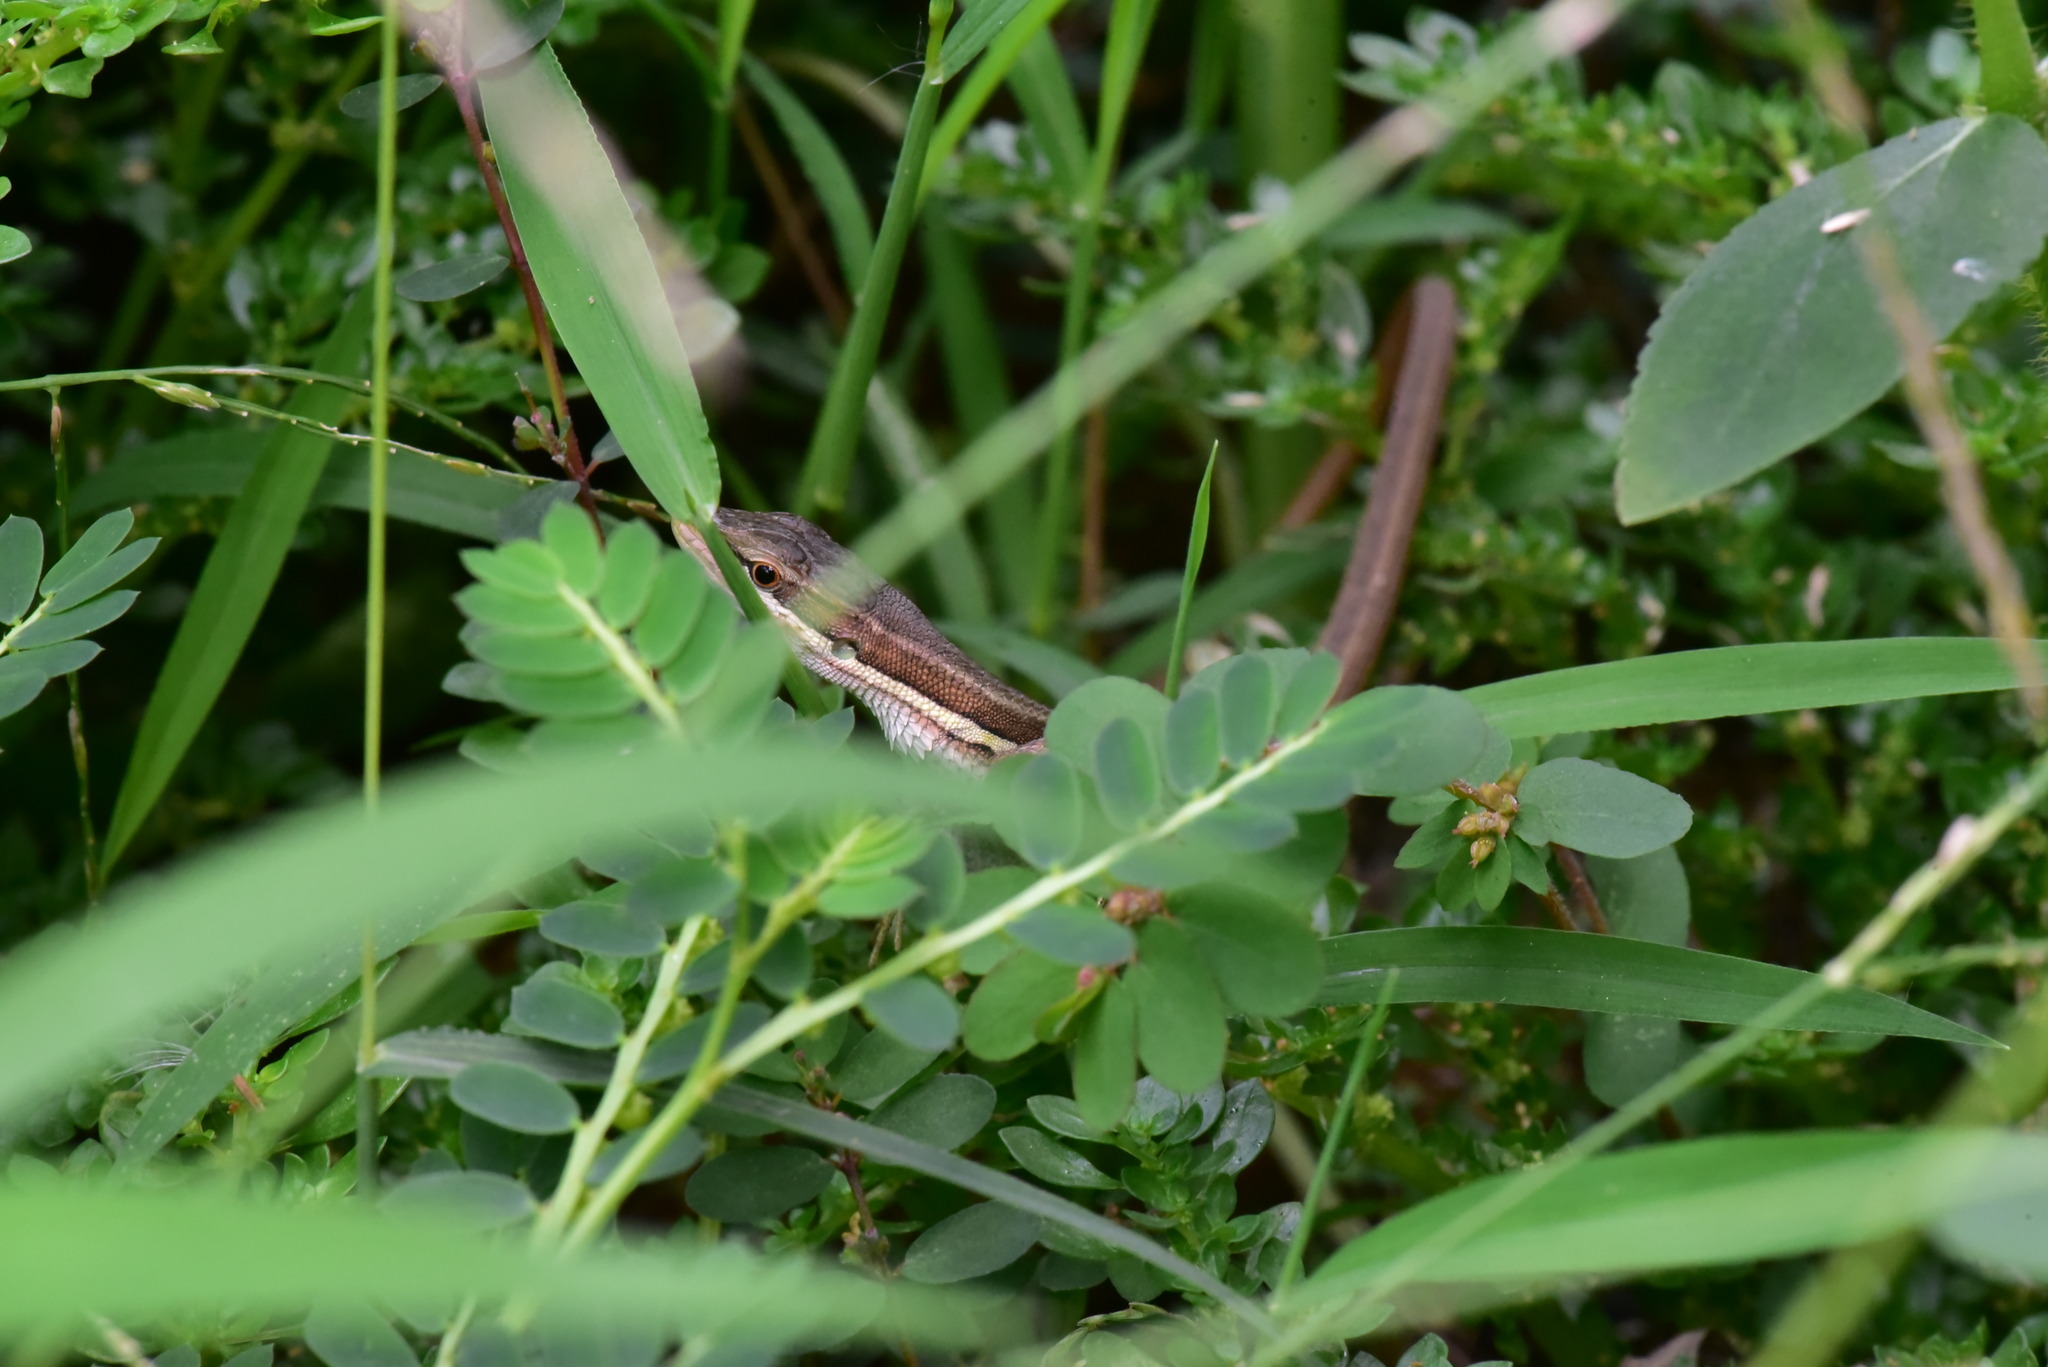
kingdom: Animalia
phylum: Chordata
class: Squamata
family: Lacertidae
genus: Takydromus
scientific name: Takydromus viridipunctatus
